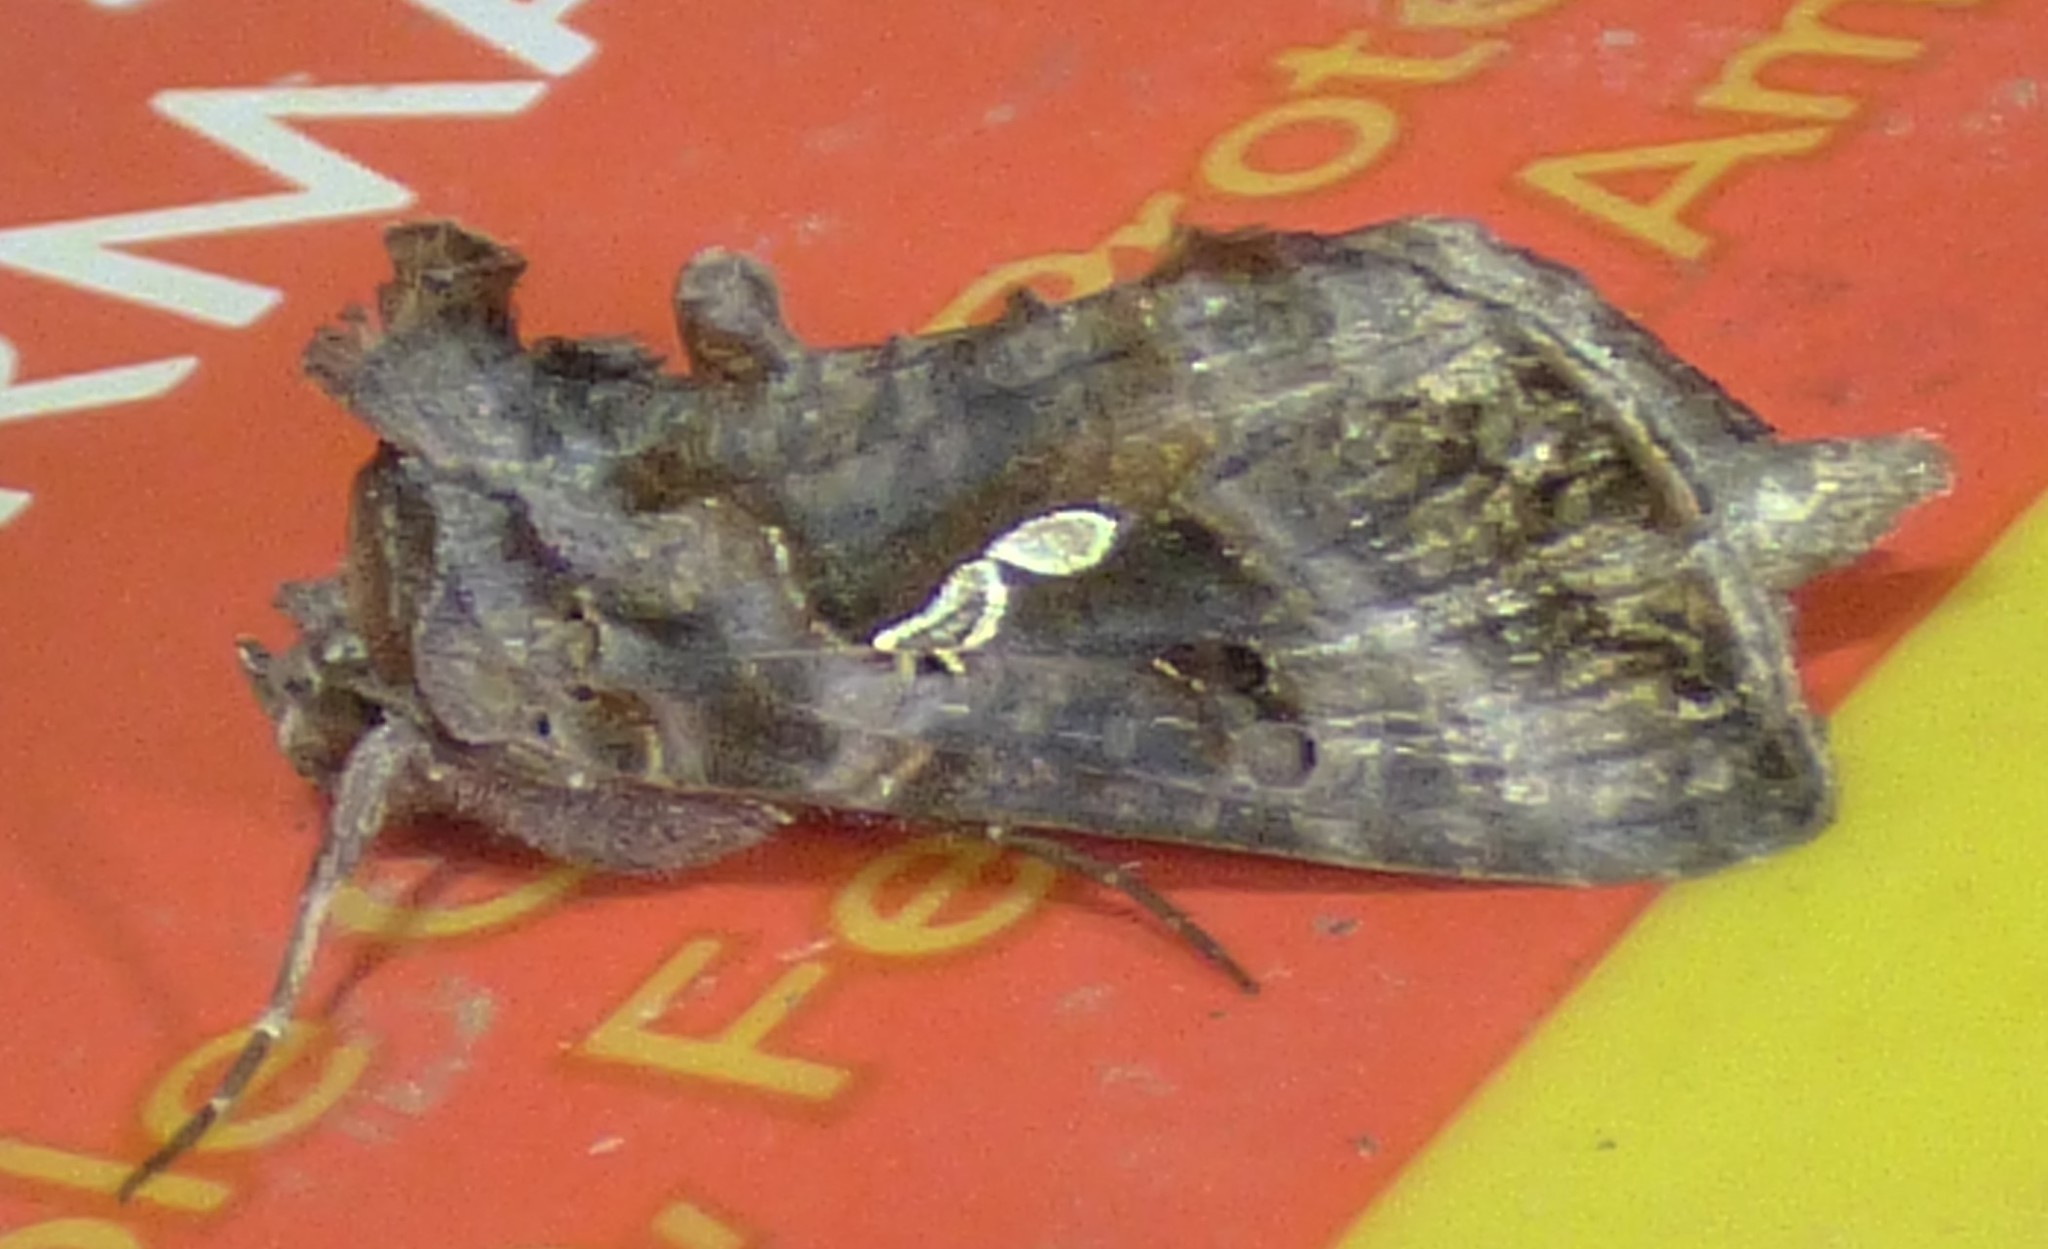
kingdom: Animalia
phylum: Arthropoda
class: Insecta
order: Lepidoptera
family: Noctuidae
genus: Autographa
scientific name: Autographa precationis
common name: Common looper moth
